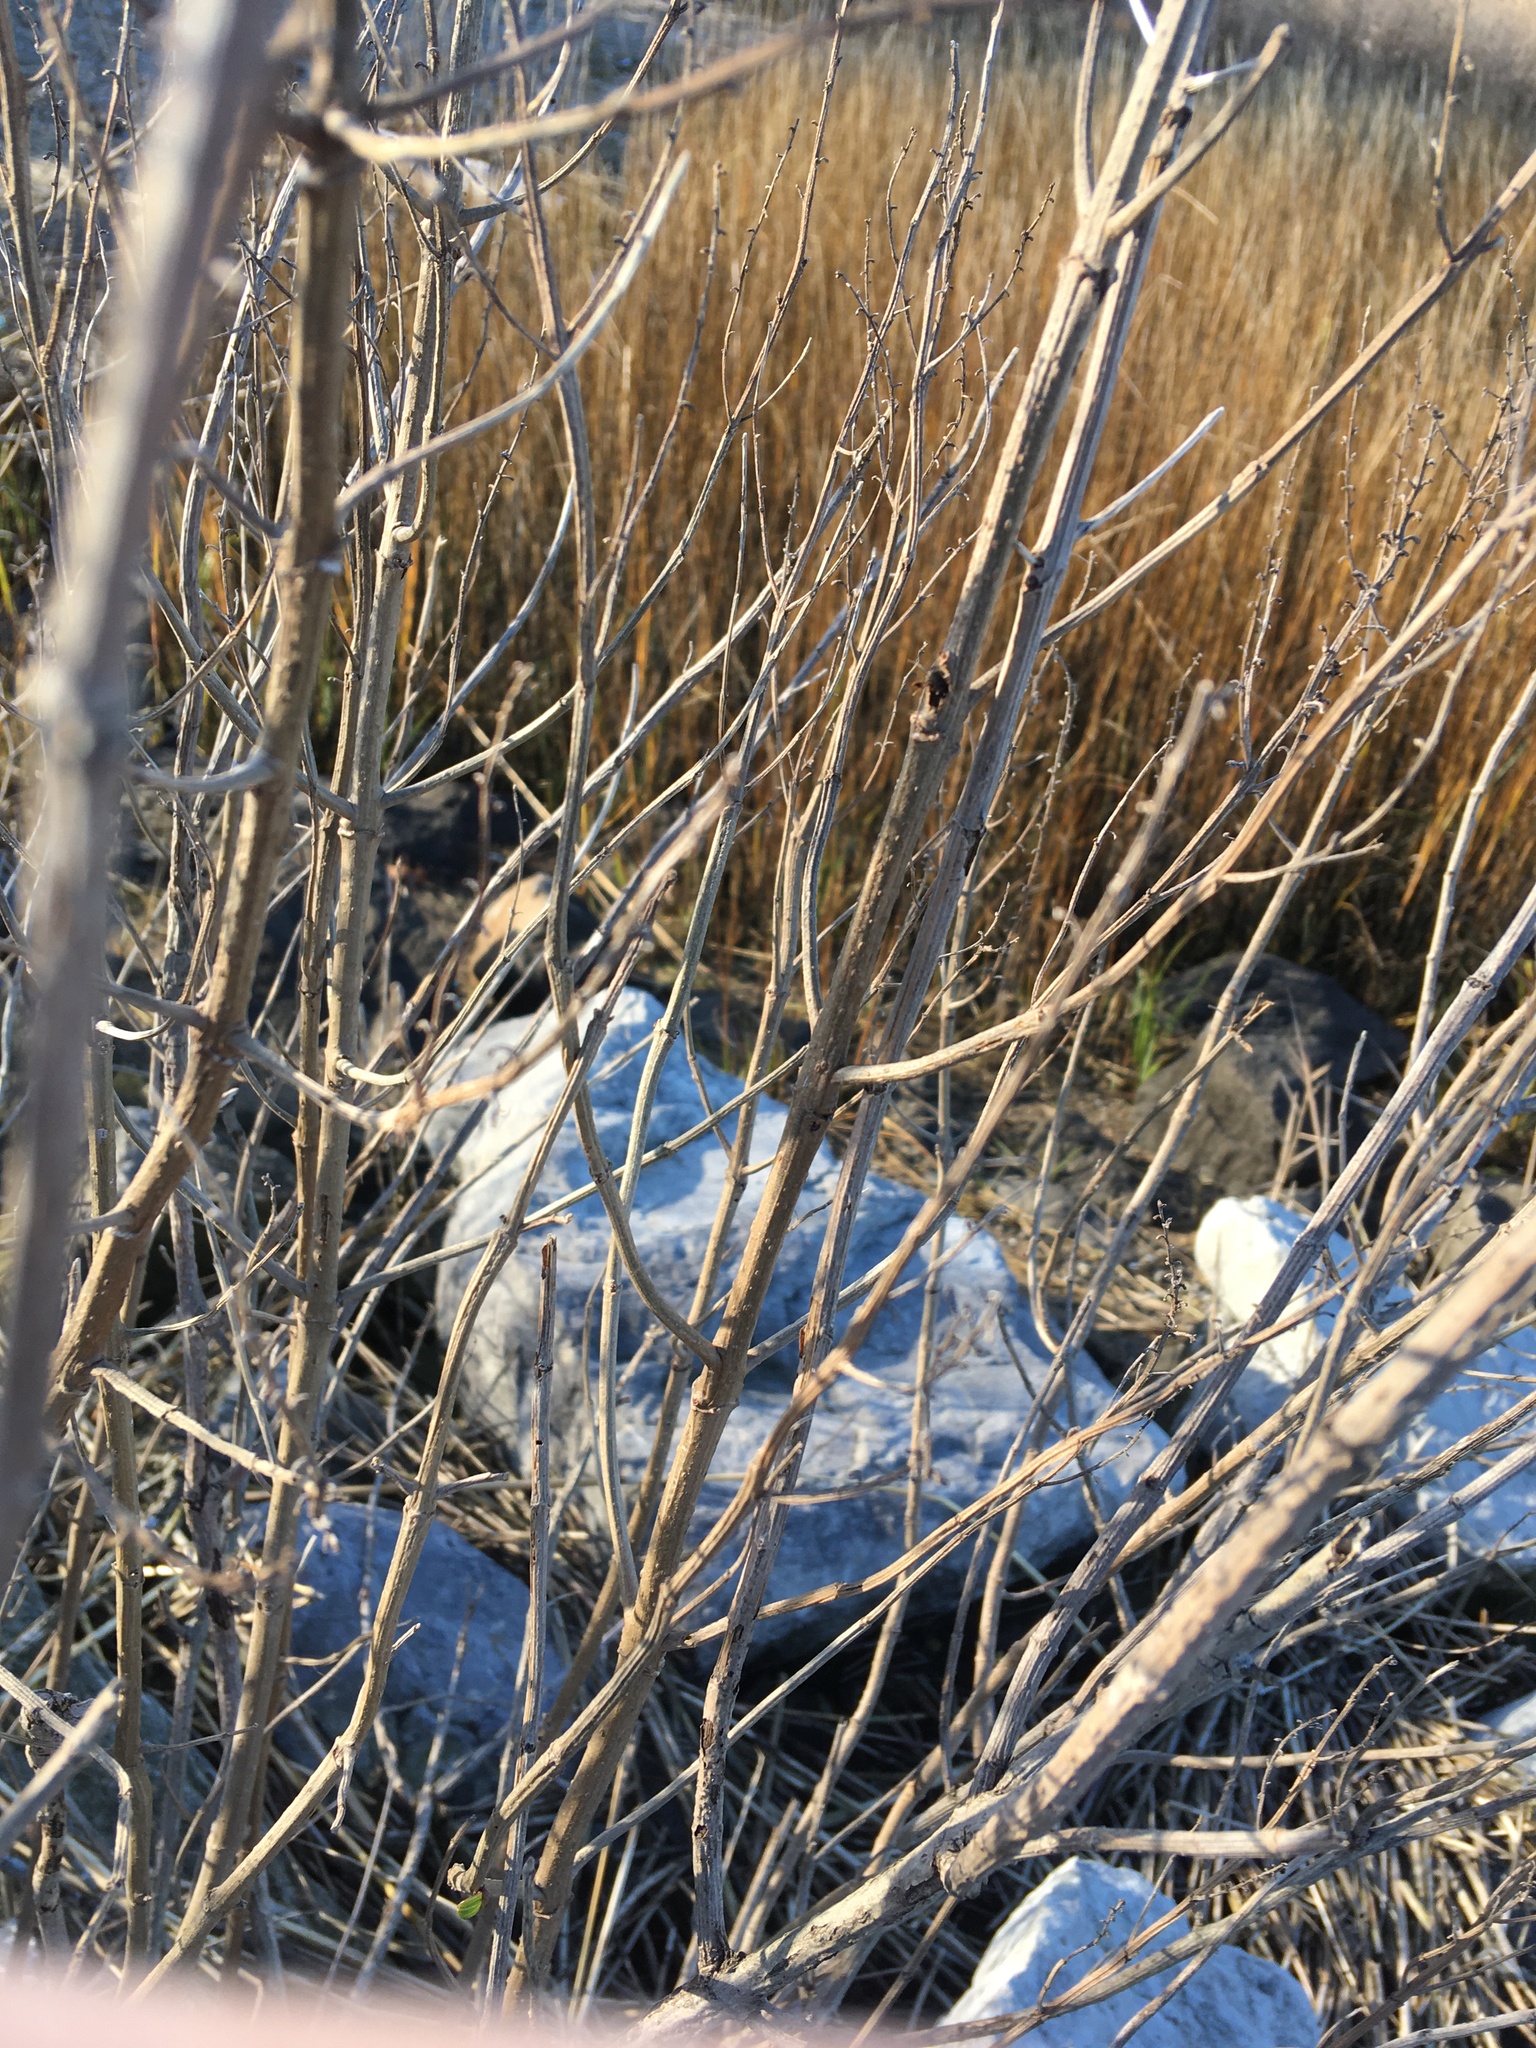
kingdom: Plantae
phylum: Tracheophyta
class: Magnoliopsida
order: Asterales
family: Asteraceae
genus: Iva
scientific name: Iva frutescens
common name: Big-leaved marsh-elder
